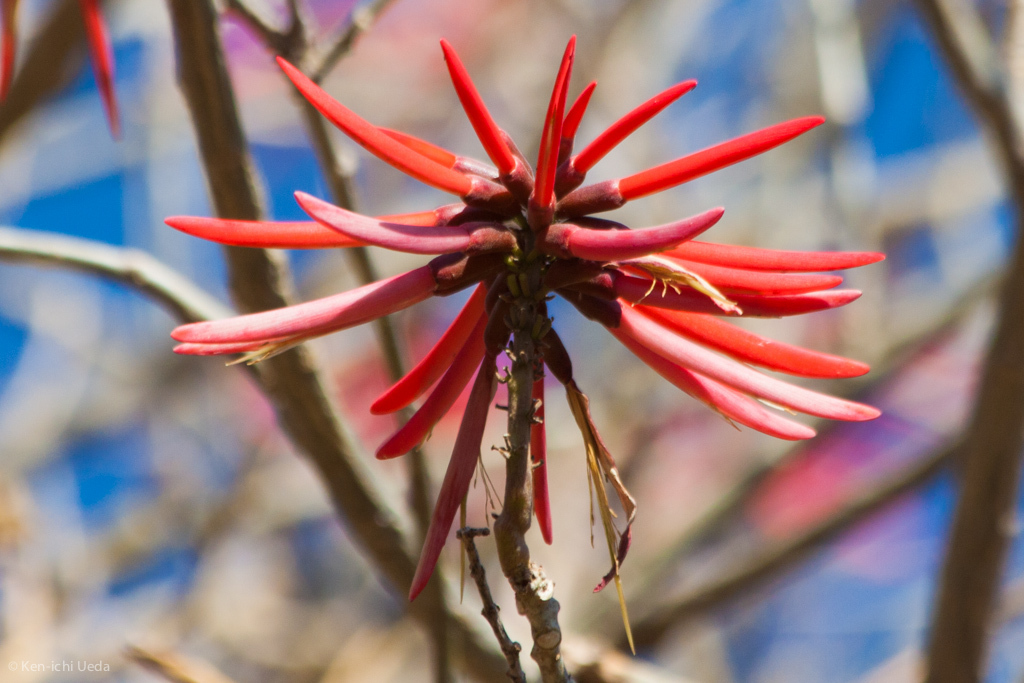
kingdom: Plantae
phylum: Tracheophyta
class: Magnoliopsida
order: Fabales
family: Fabaceae
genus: Erythrina
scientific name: Erythrina americana
